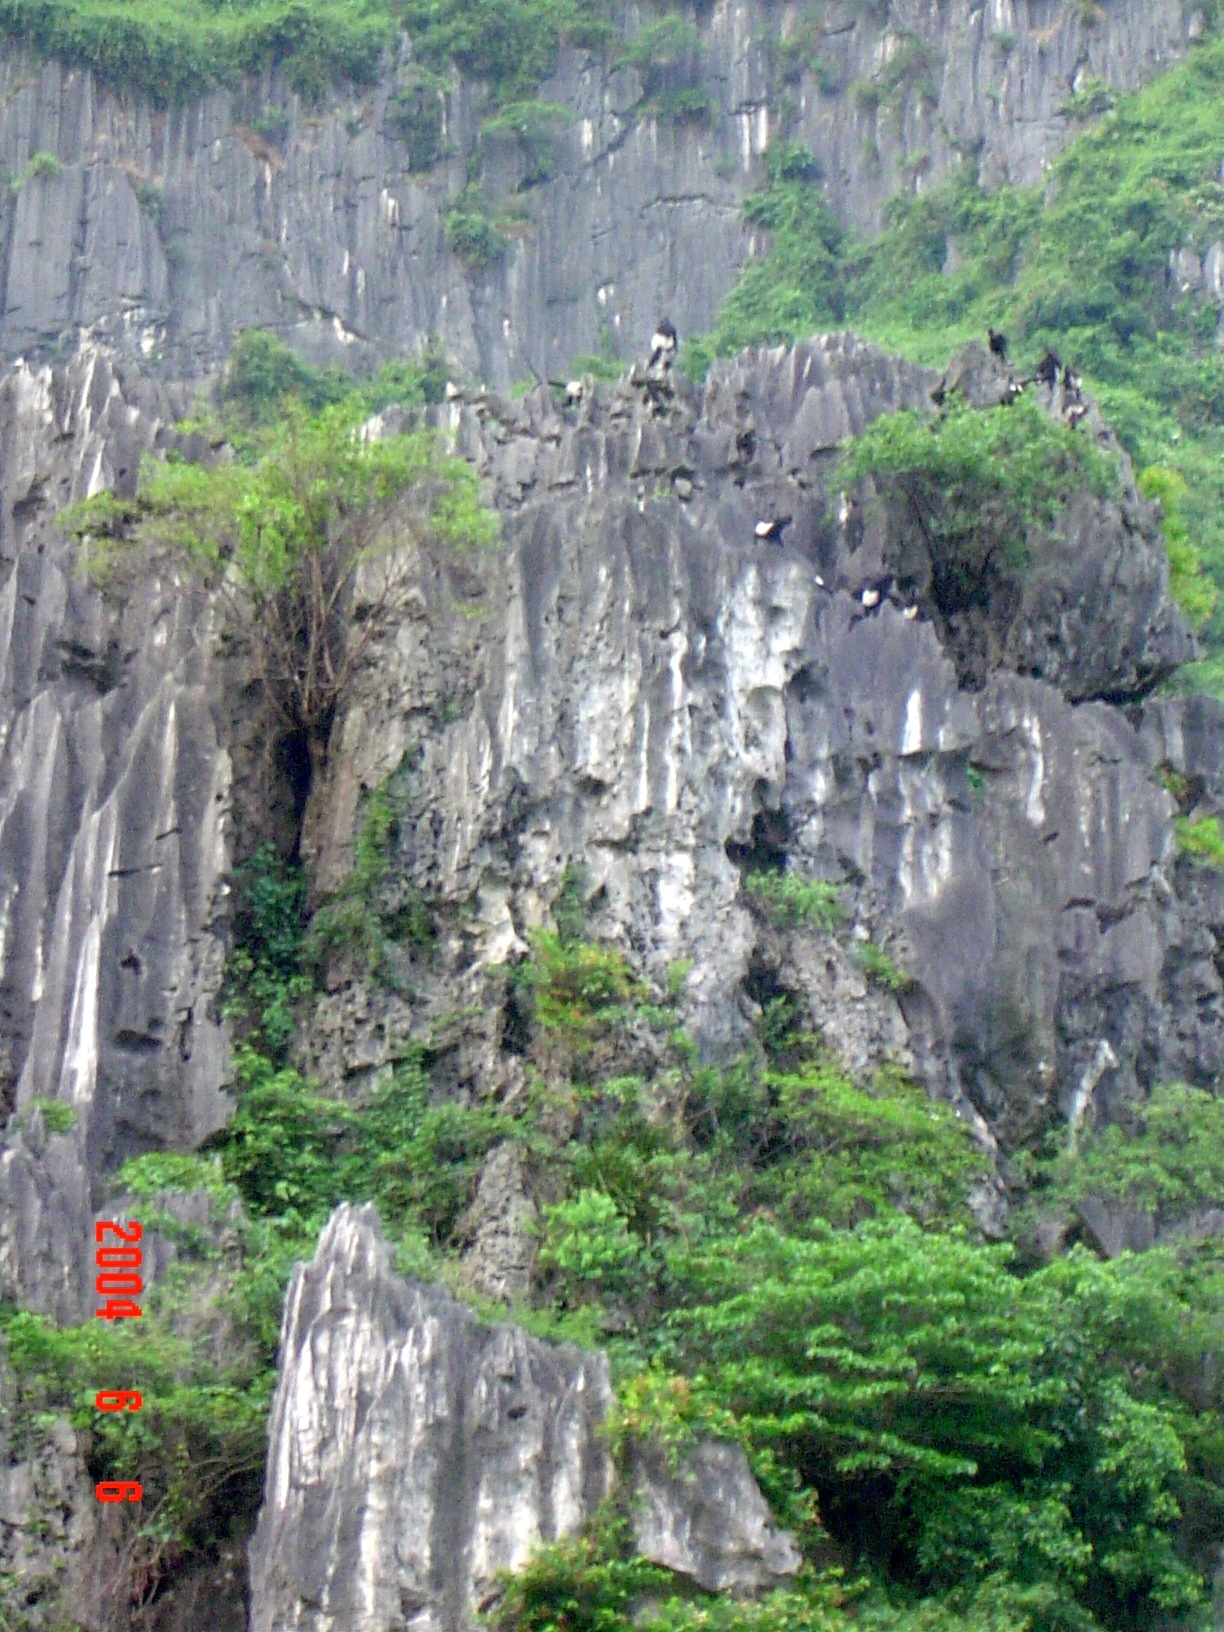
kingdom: Animalia
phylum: Chordata
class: Mammalia
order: Primates
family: Cercopithecidae
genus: Trachypithecus
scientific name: Trachypithecus delacouri
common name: Delacour's langur
